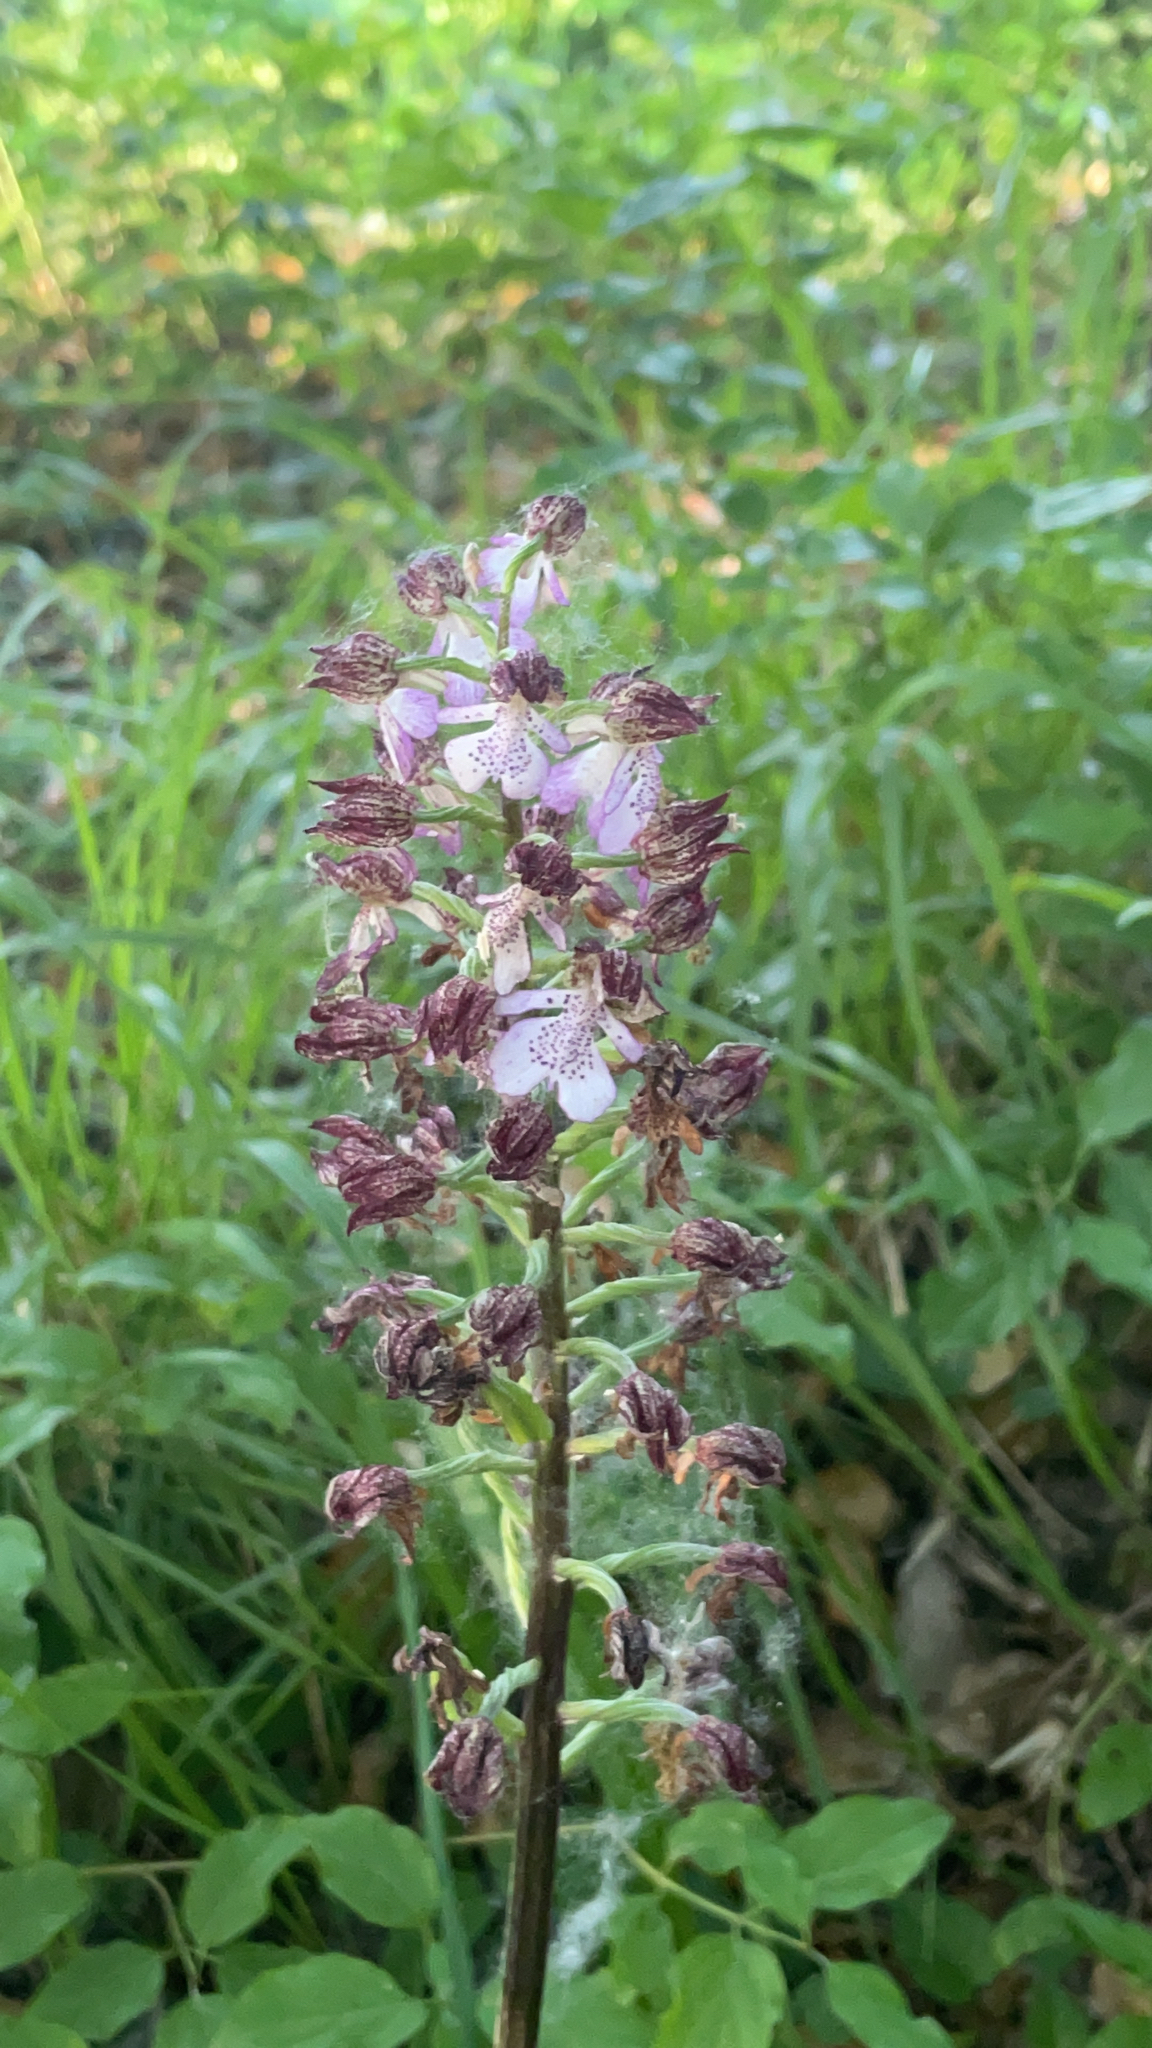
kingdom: Plantae
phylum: Tracheophyta
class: Liliopsida
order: Asparagales
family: Orchidaceae
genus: Orchis
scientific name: Orchis purpurea
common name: Lady orchid
